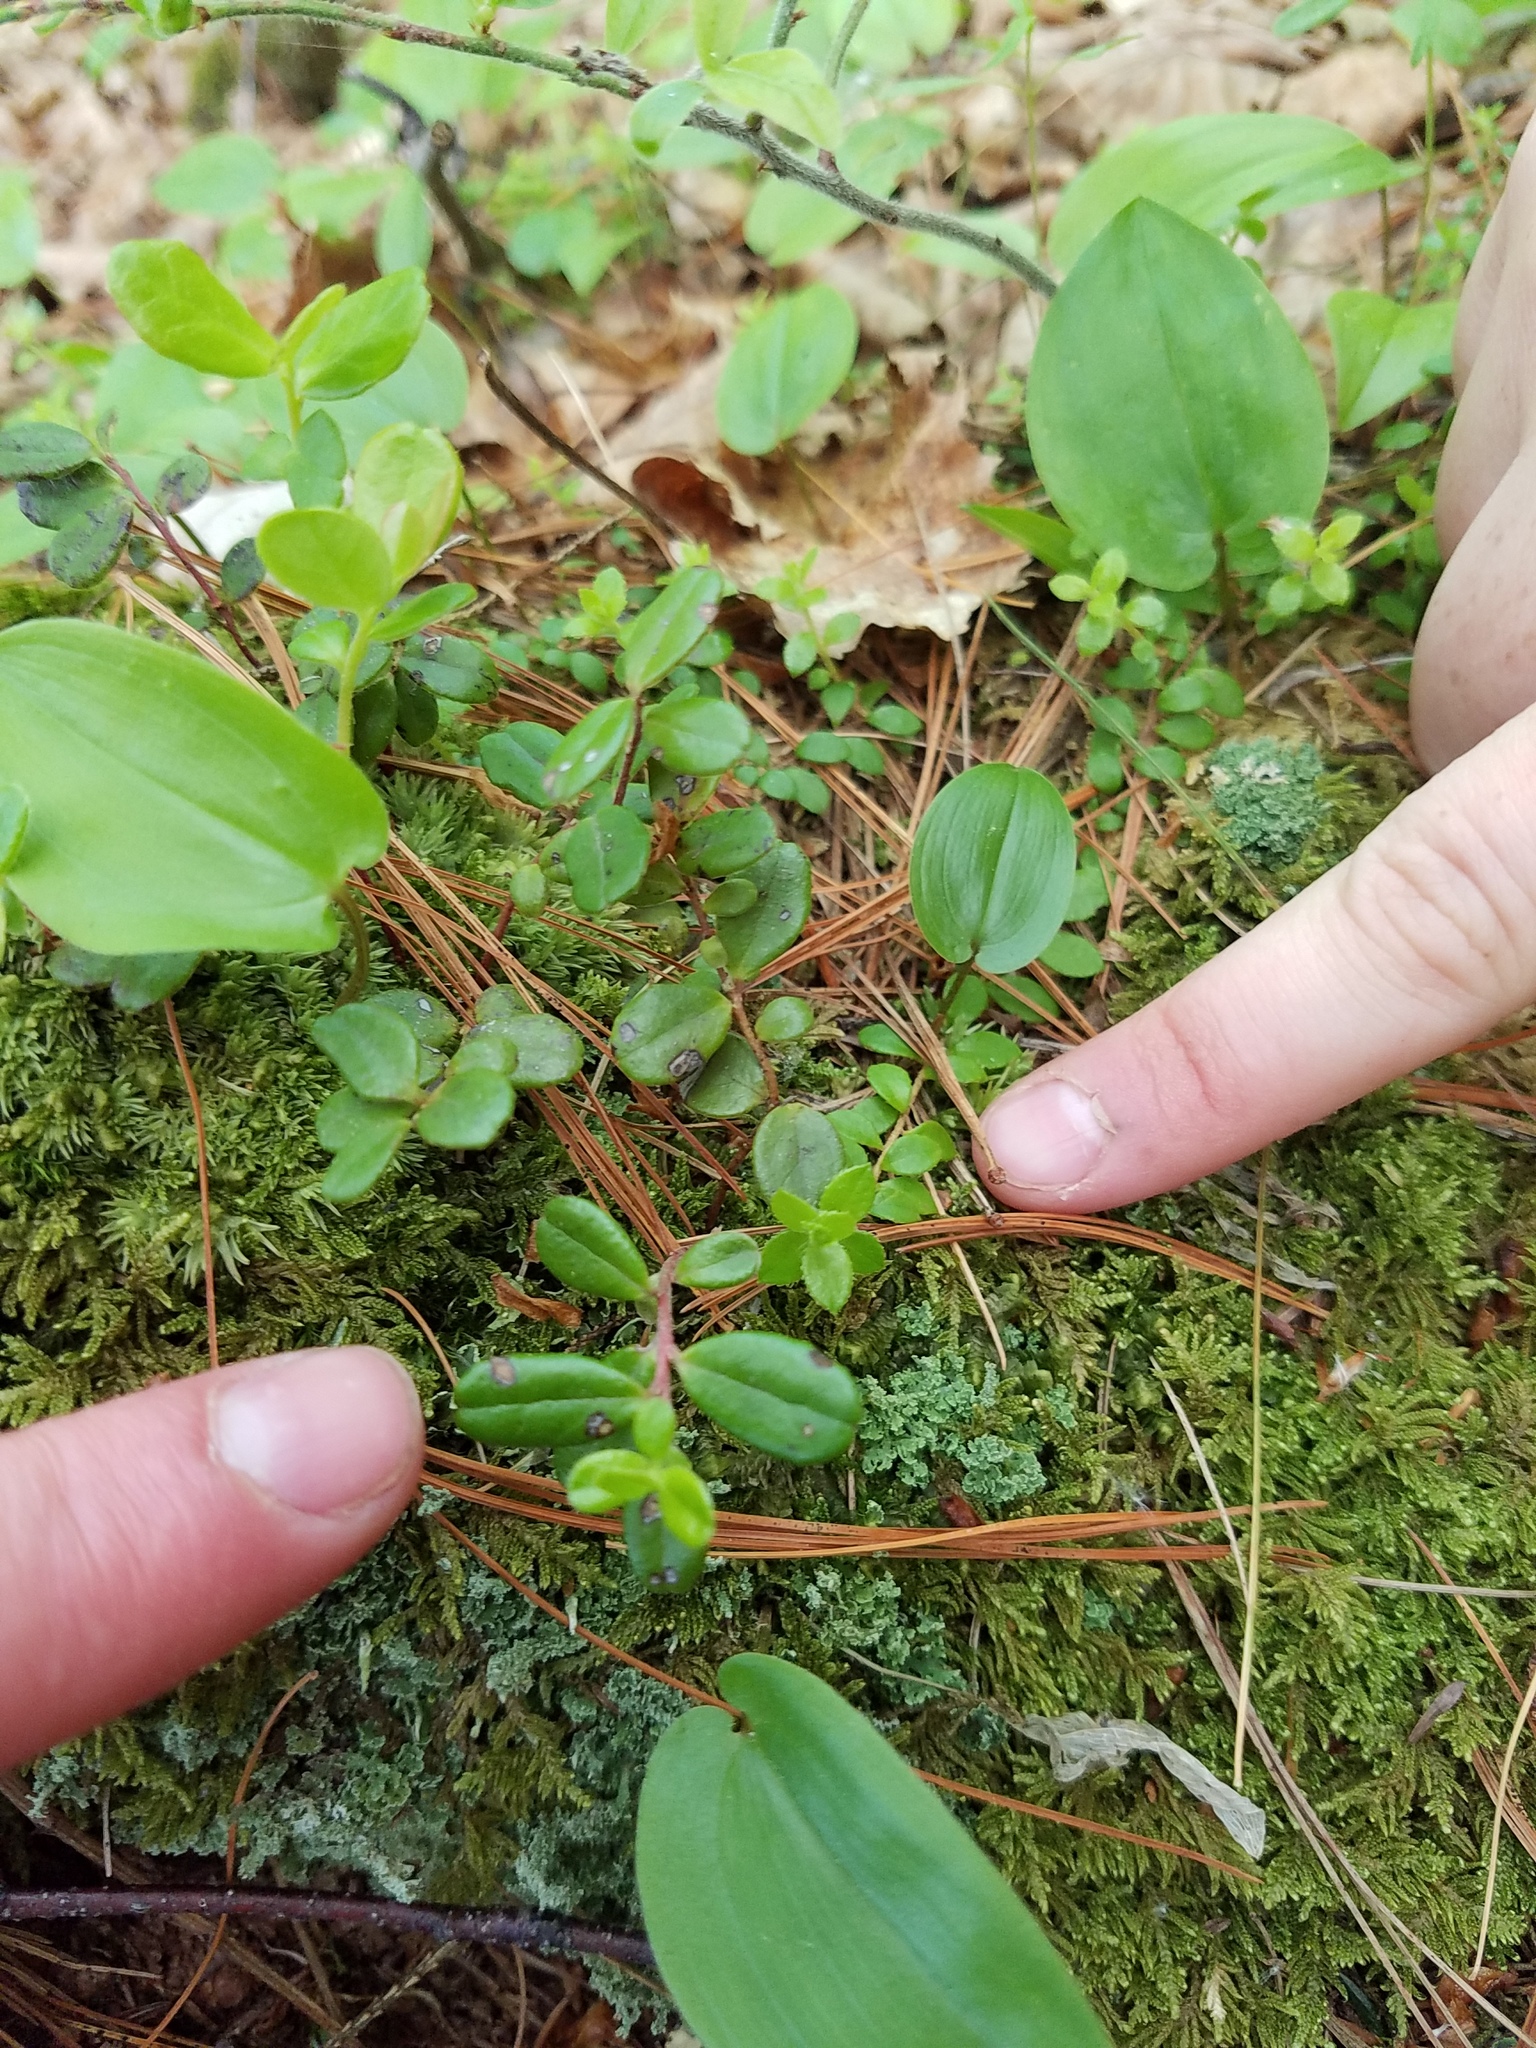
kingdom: Plantae
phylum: Tracheophyta
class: Magnoliopsida
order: Ericales
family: Ericaceae
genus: Vaccinium
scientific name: Vaccinium vitis-idaea
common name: Cowberry
